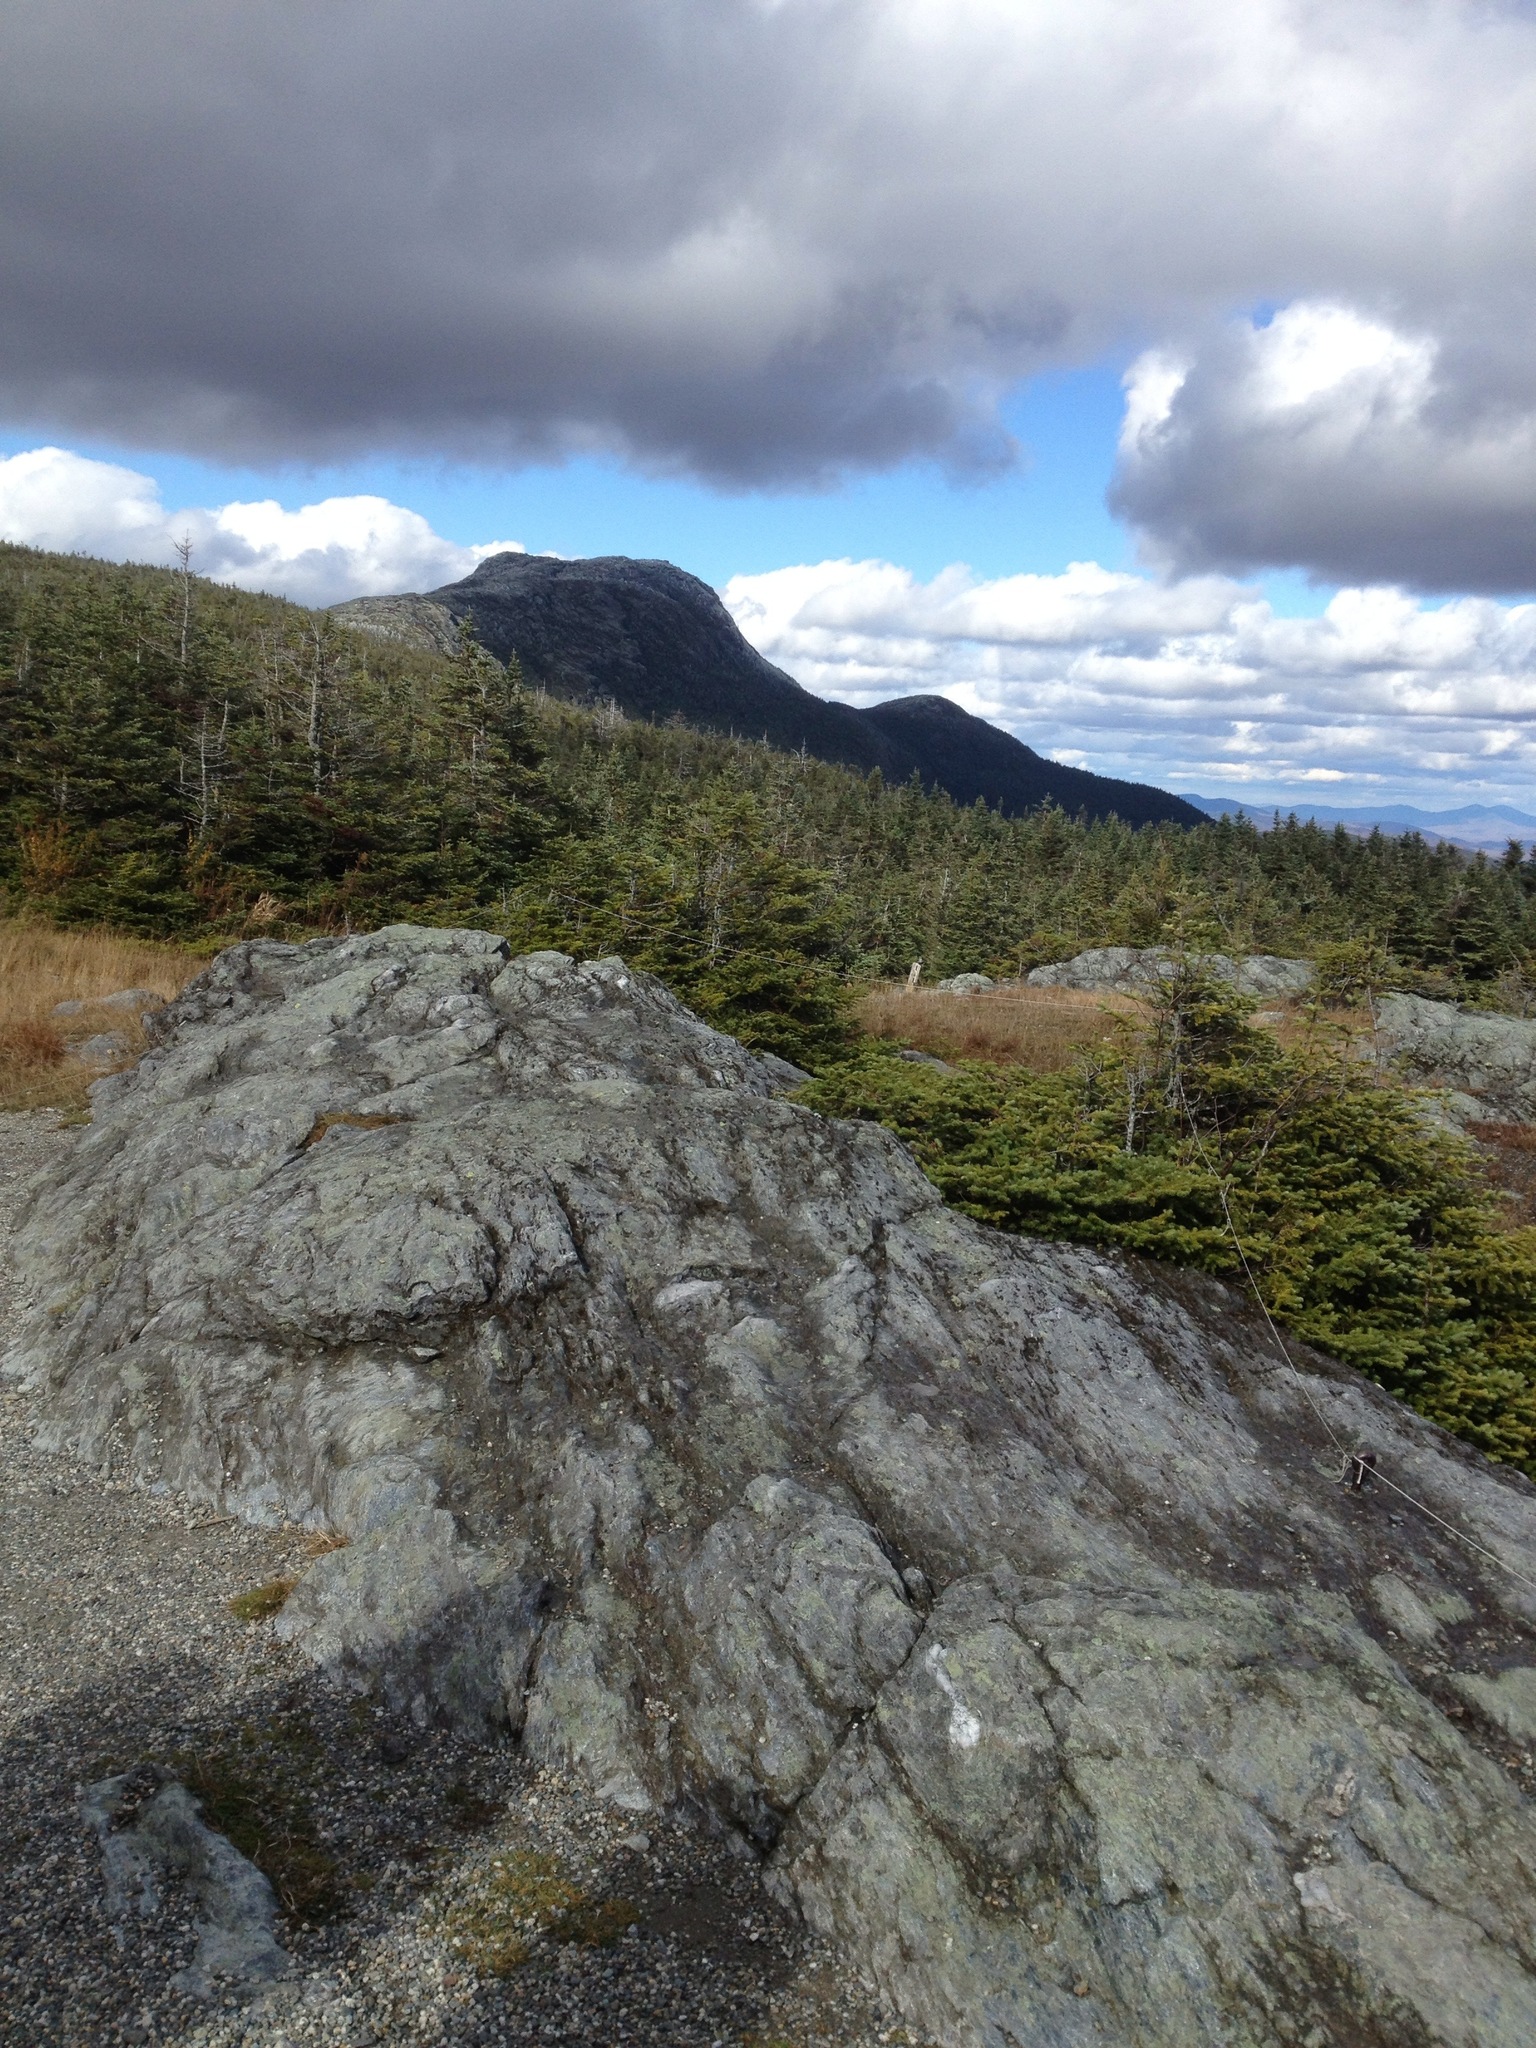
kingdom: Plantae
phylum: Tracheophyta
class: Pinopsida
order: Pinales
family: Pinaceae
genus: Abies
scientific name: Abies balsamea
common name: Balsam fir
